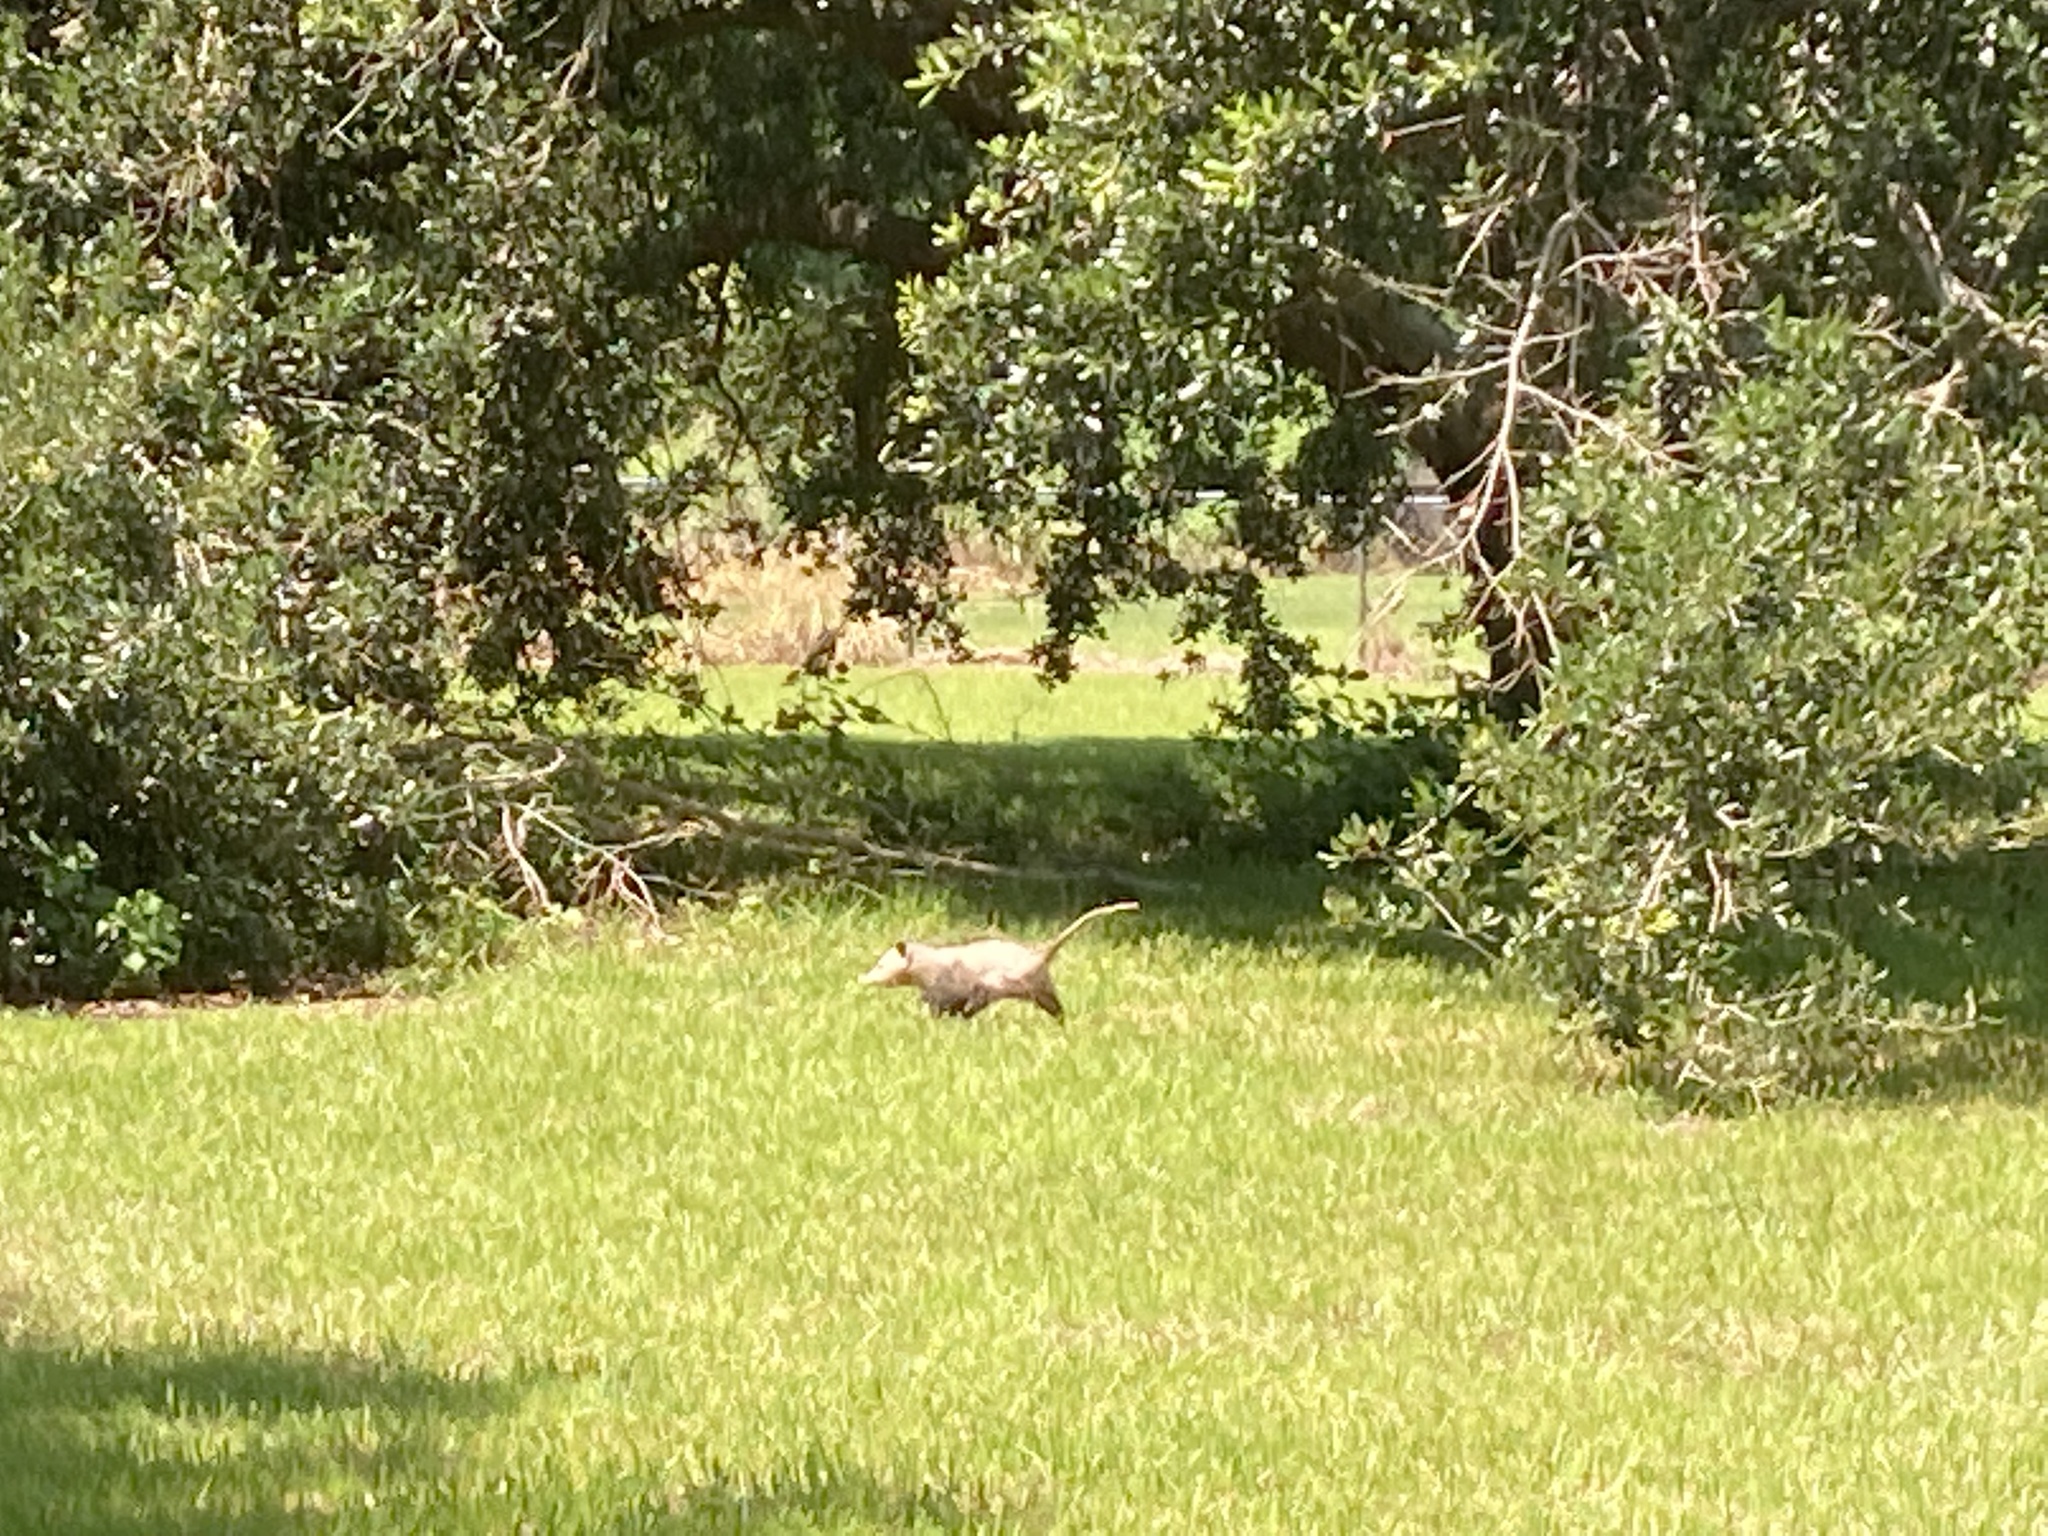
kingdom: Animalia
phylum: Chordata
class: Mammalia
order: Didelphimorphia
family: Didelphidae
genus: Didelphis
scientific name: Didelphis virginiana
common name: Virginia opossum
